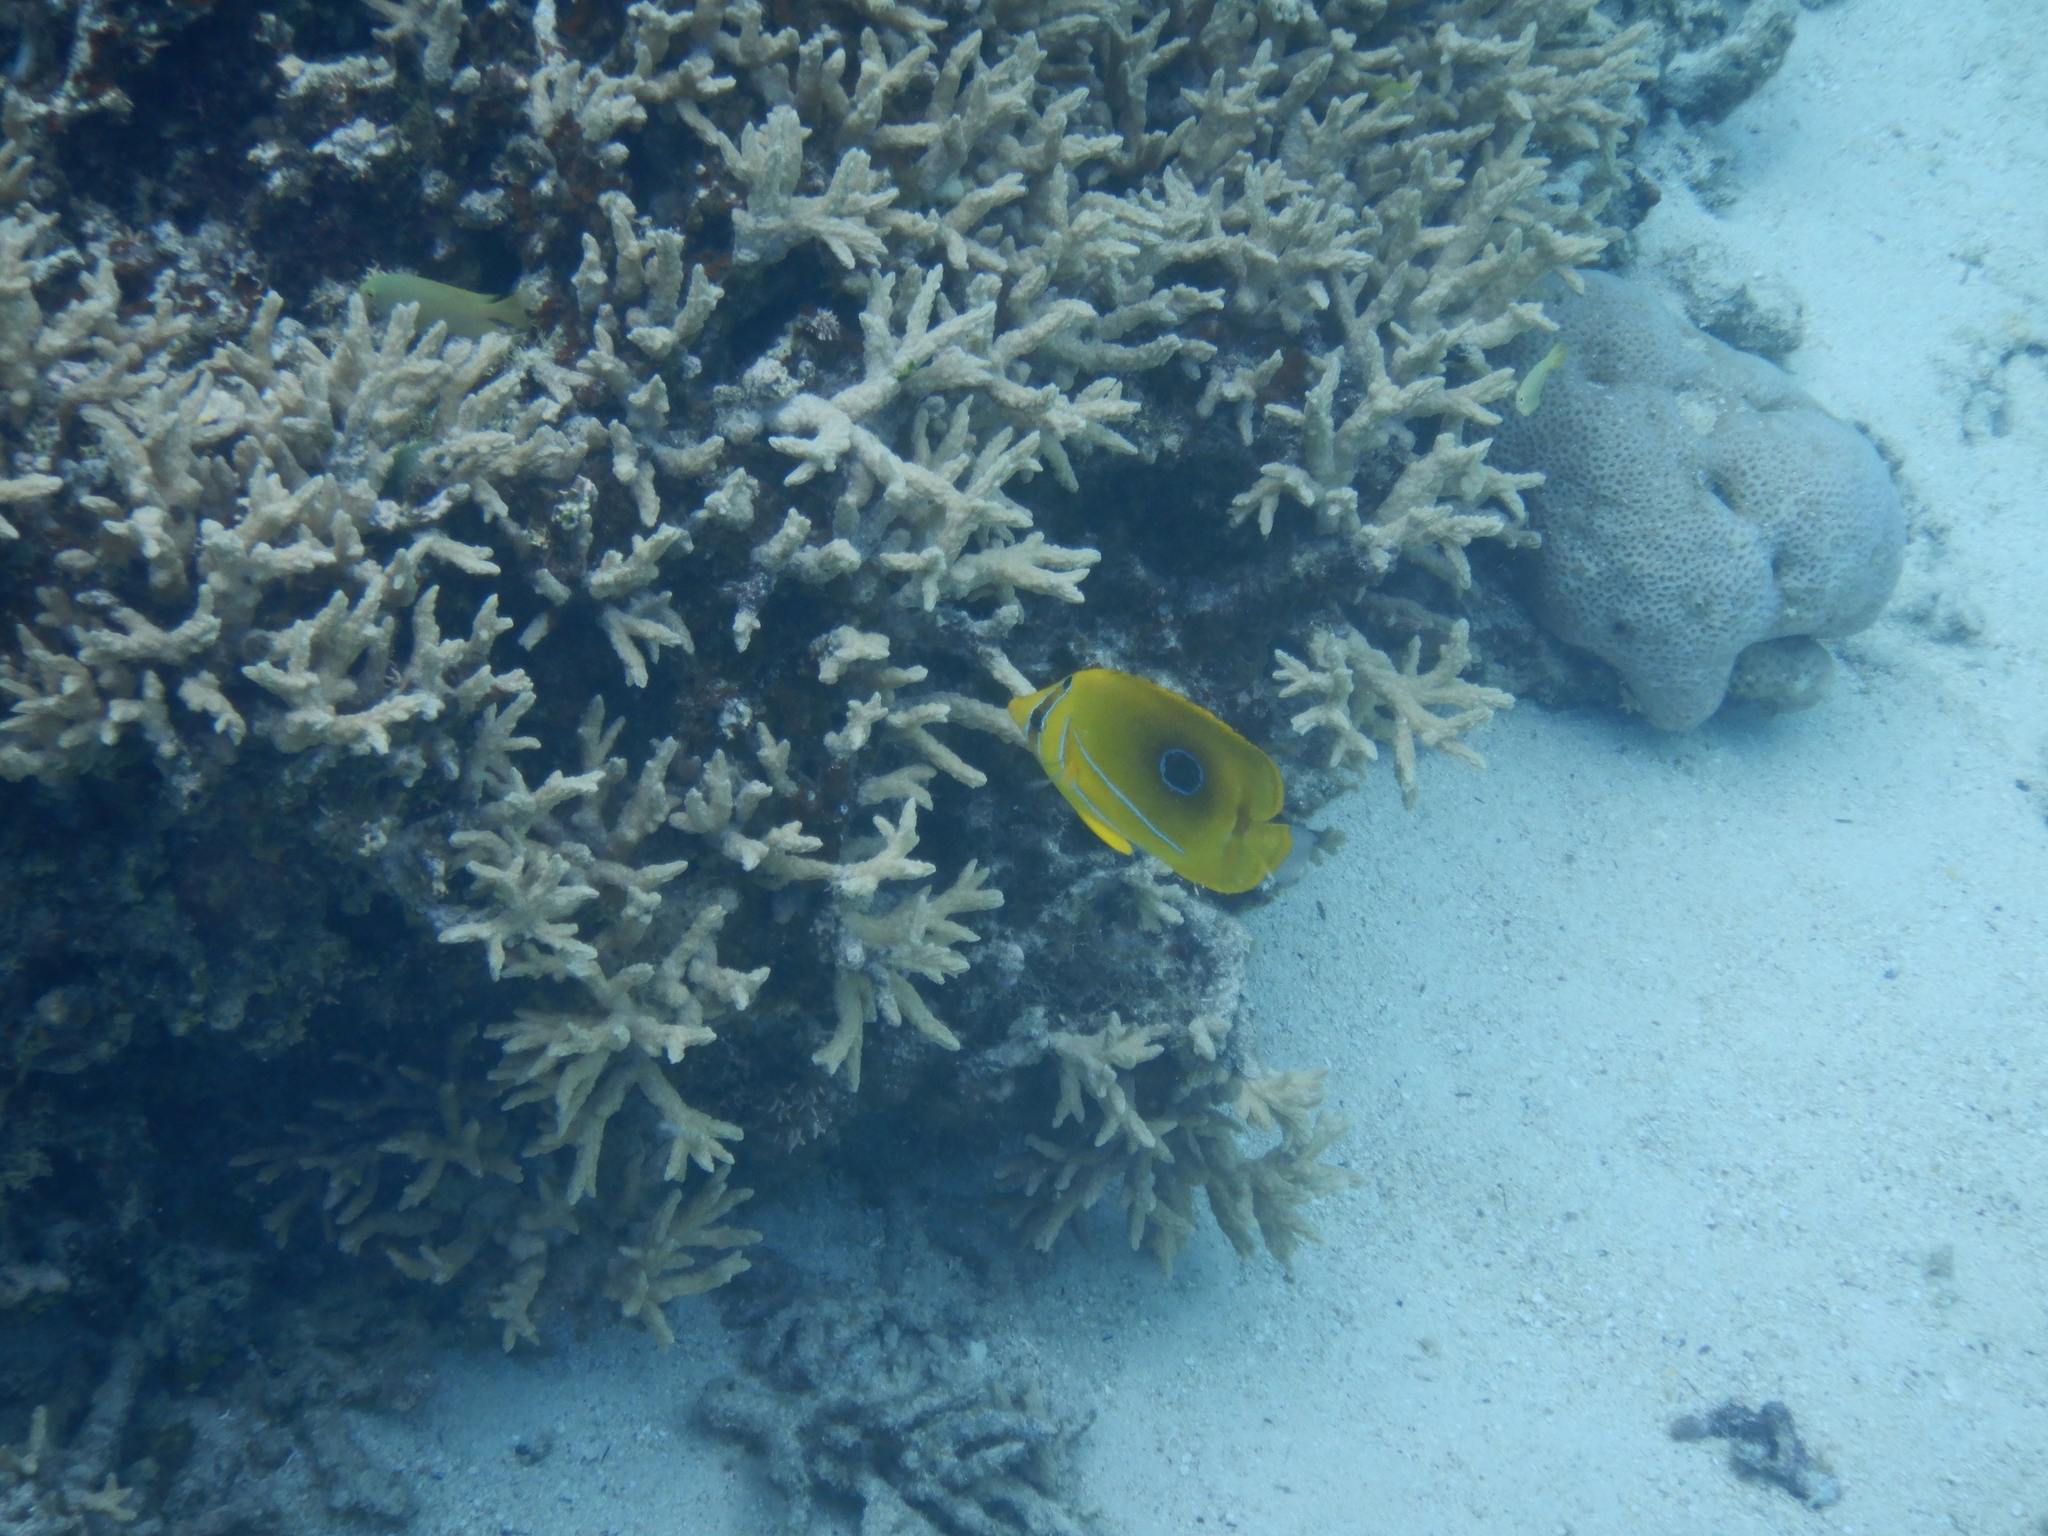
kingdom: Animalia
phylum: Chordata
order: Perciformes
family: Chaetodontidae
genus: Chaetodon
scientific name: Chaetodon bennetti
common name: Bennett's butterflyfish
